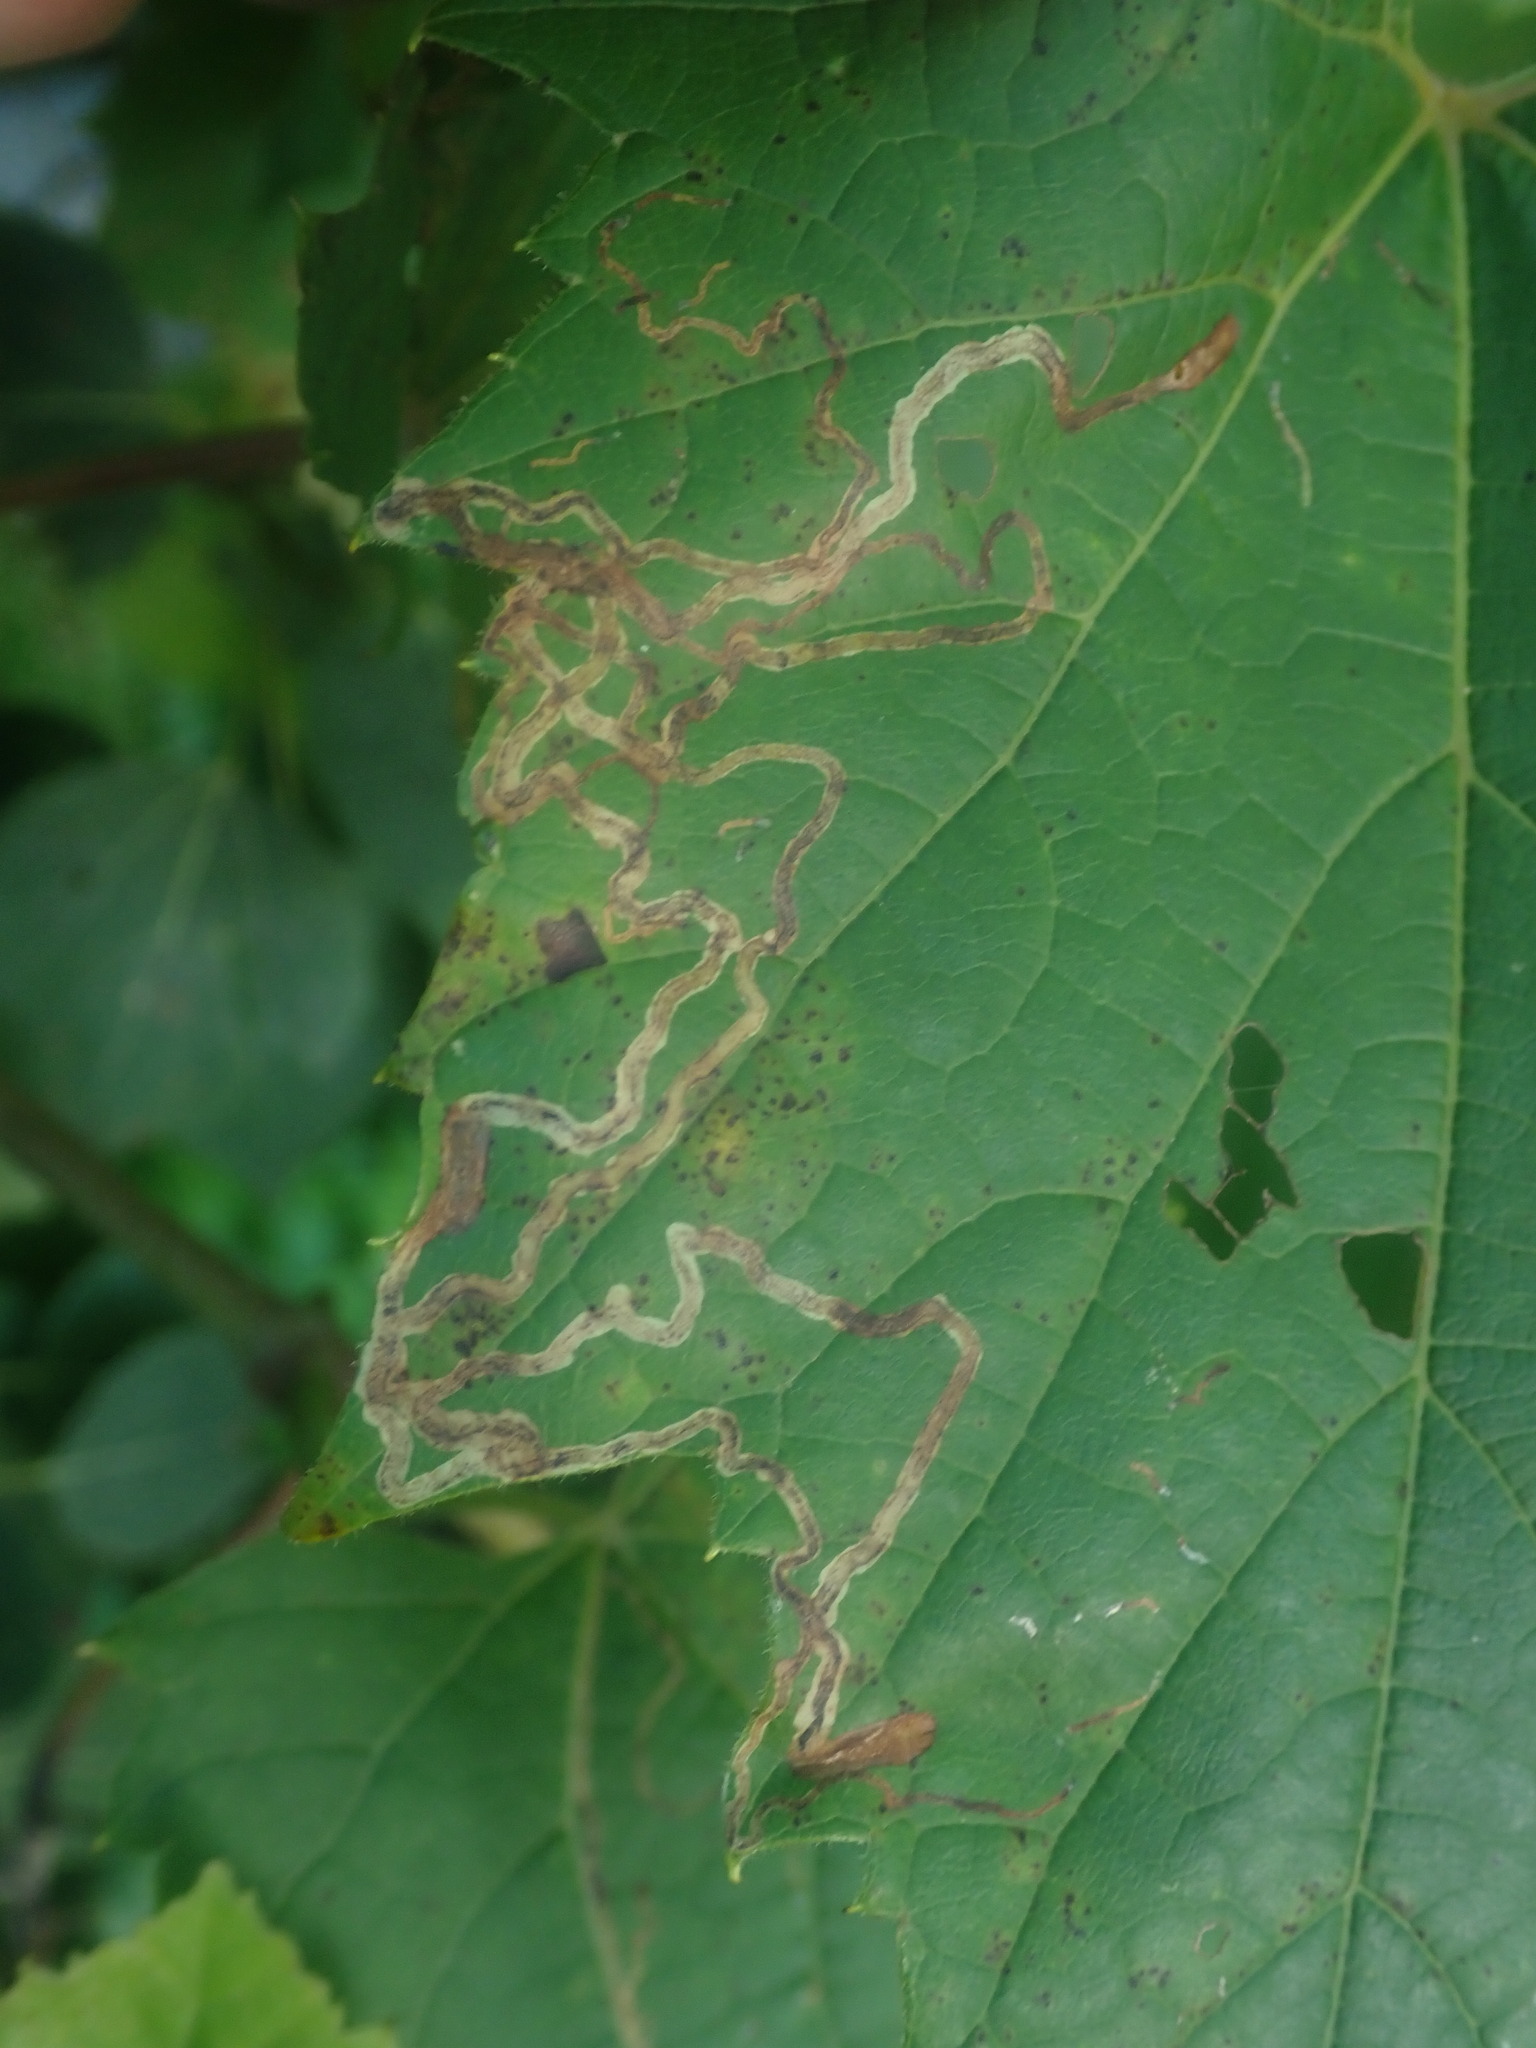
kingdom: Animalia
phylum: Arthropoda
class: Insecta
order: Lepidoptera
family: Gracillariidae
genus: Phyllocnistis
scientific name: Phyllocnistis vitifoliella
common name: Grape leaf-miner moth
